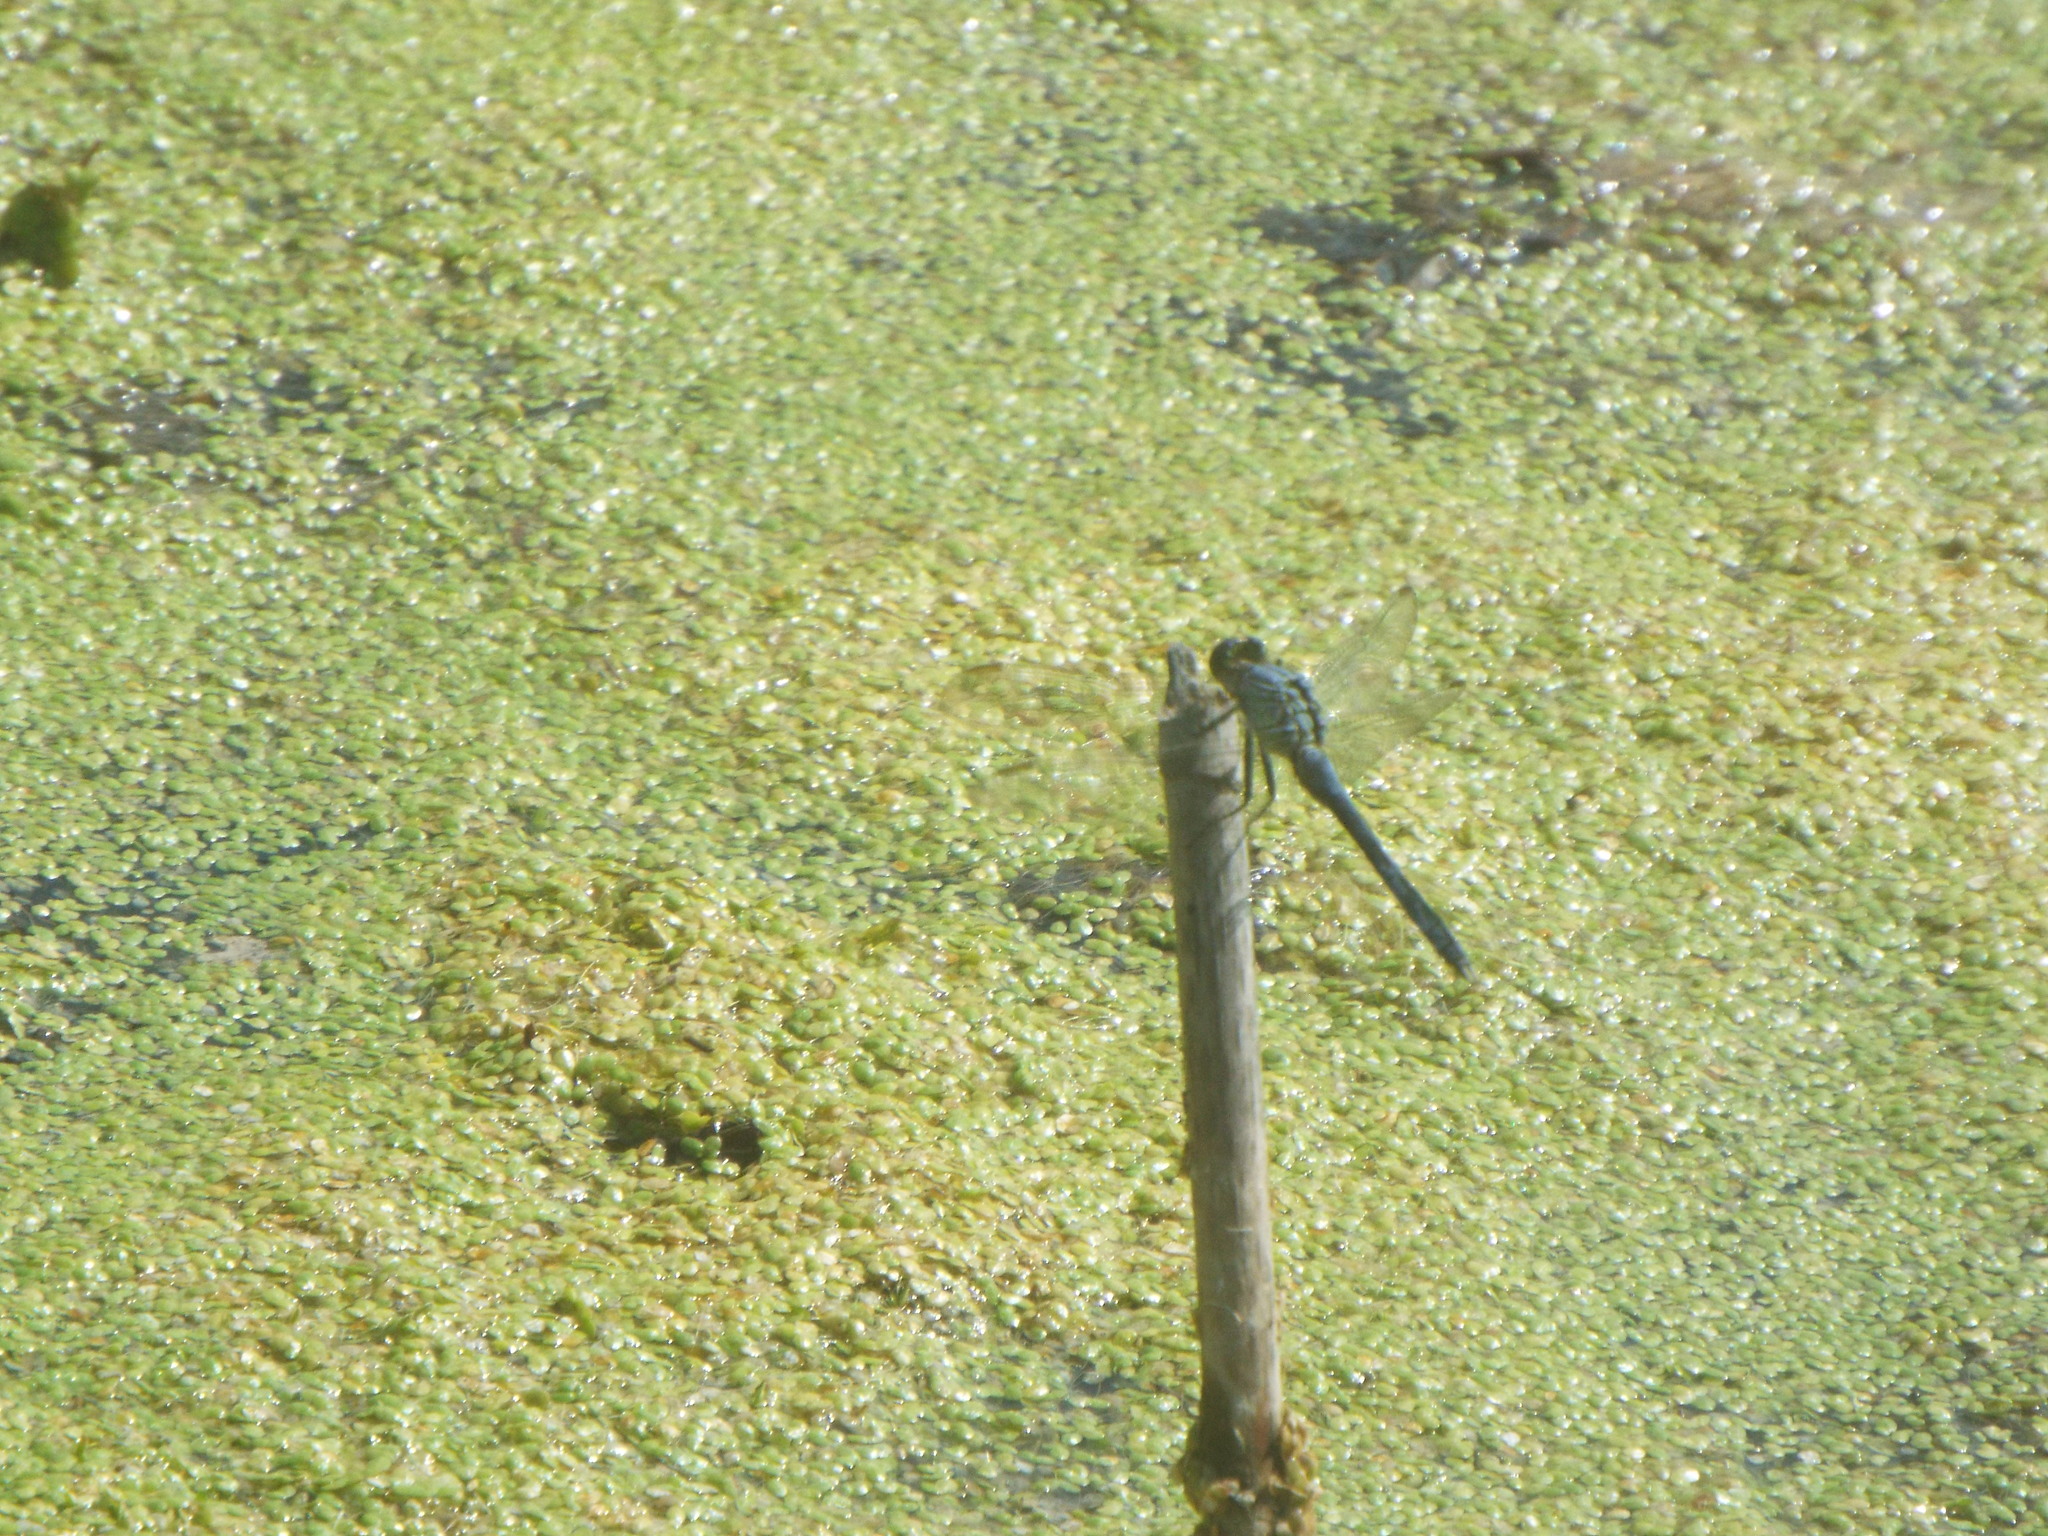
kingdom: Animalia
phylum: Arthropoda
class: Insecta
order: Odonata
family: Libellulidae
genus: Erythemis
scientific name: Erythemis simplicicollis
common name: Eastern pondhawk
